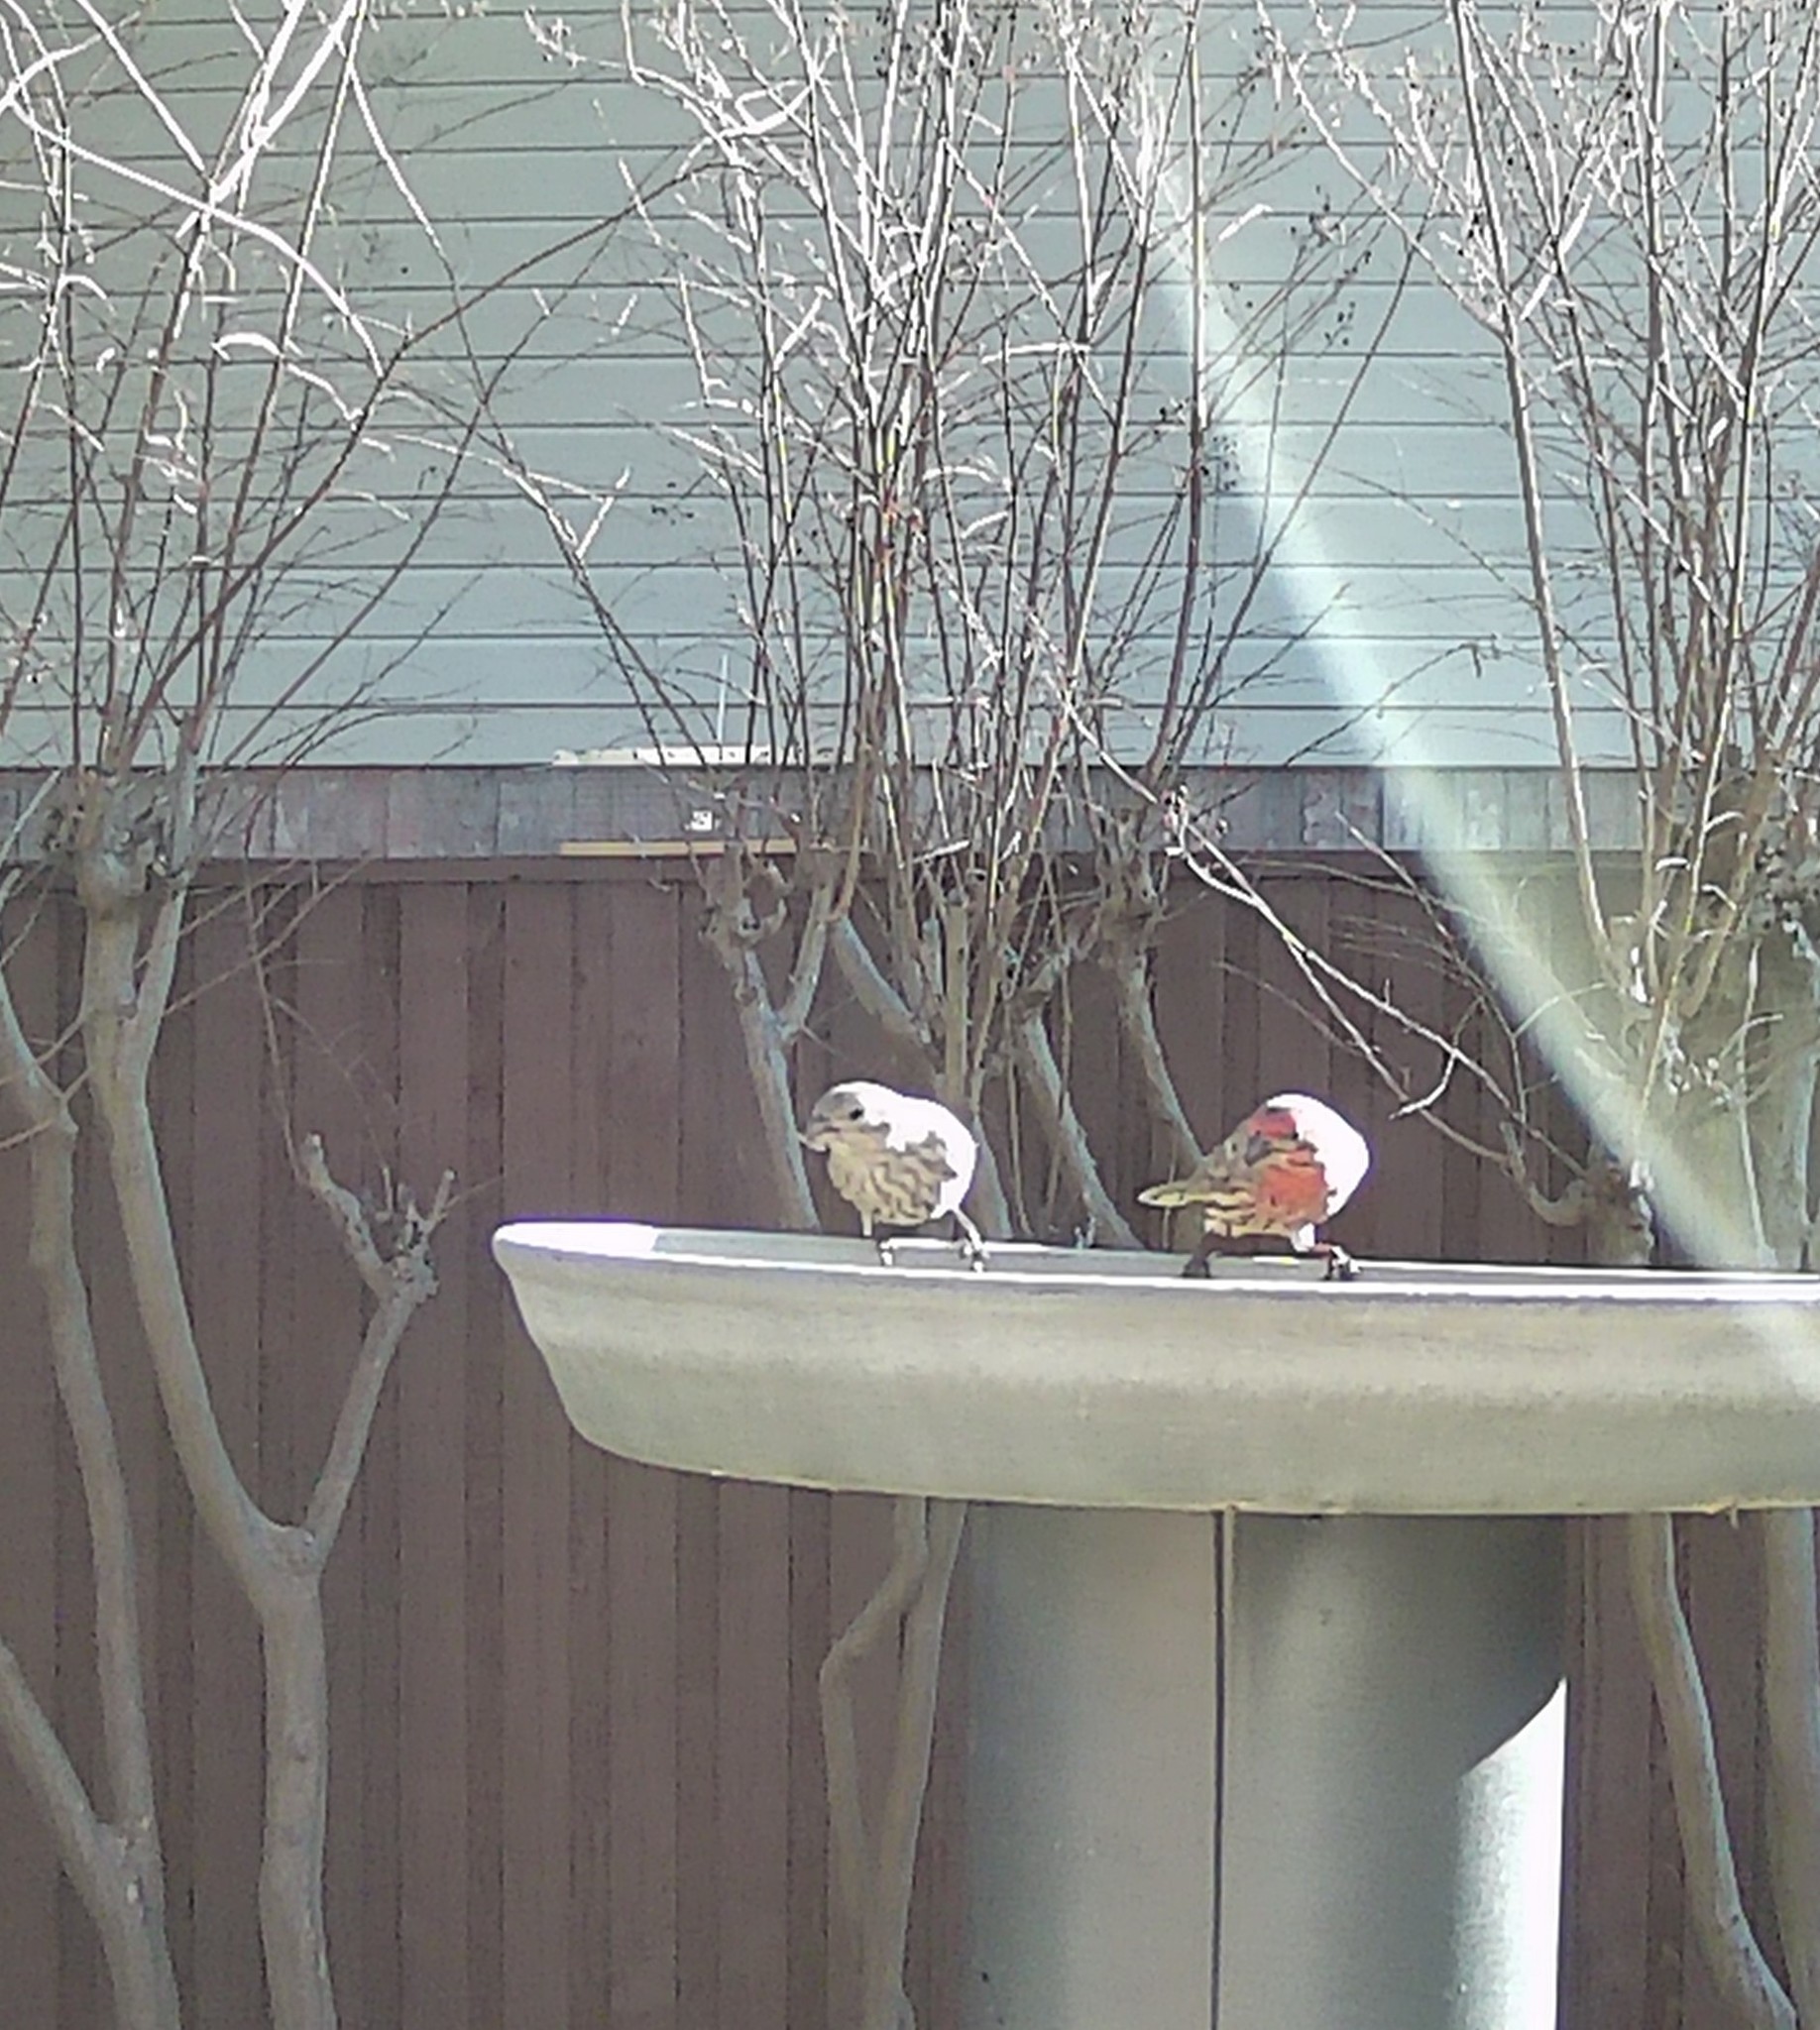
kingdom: Animalia
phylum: Chordata
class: Aves
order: Passeriformes
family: Fringillidae
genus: Haemorhous
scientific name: Haemorhous mexicanus
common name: House finch
